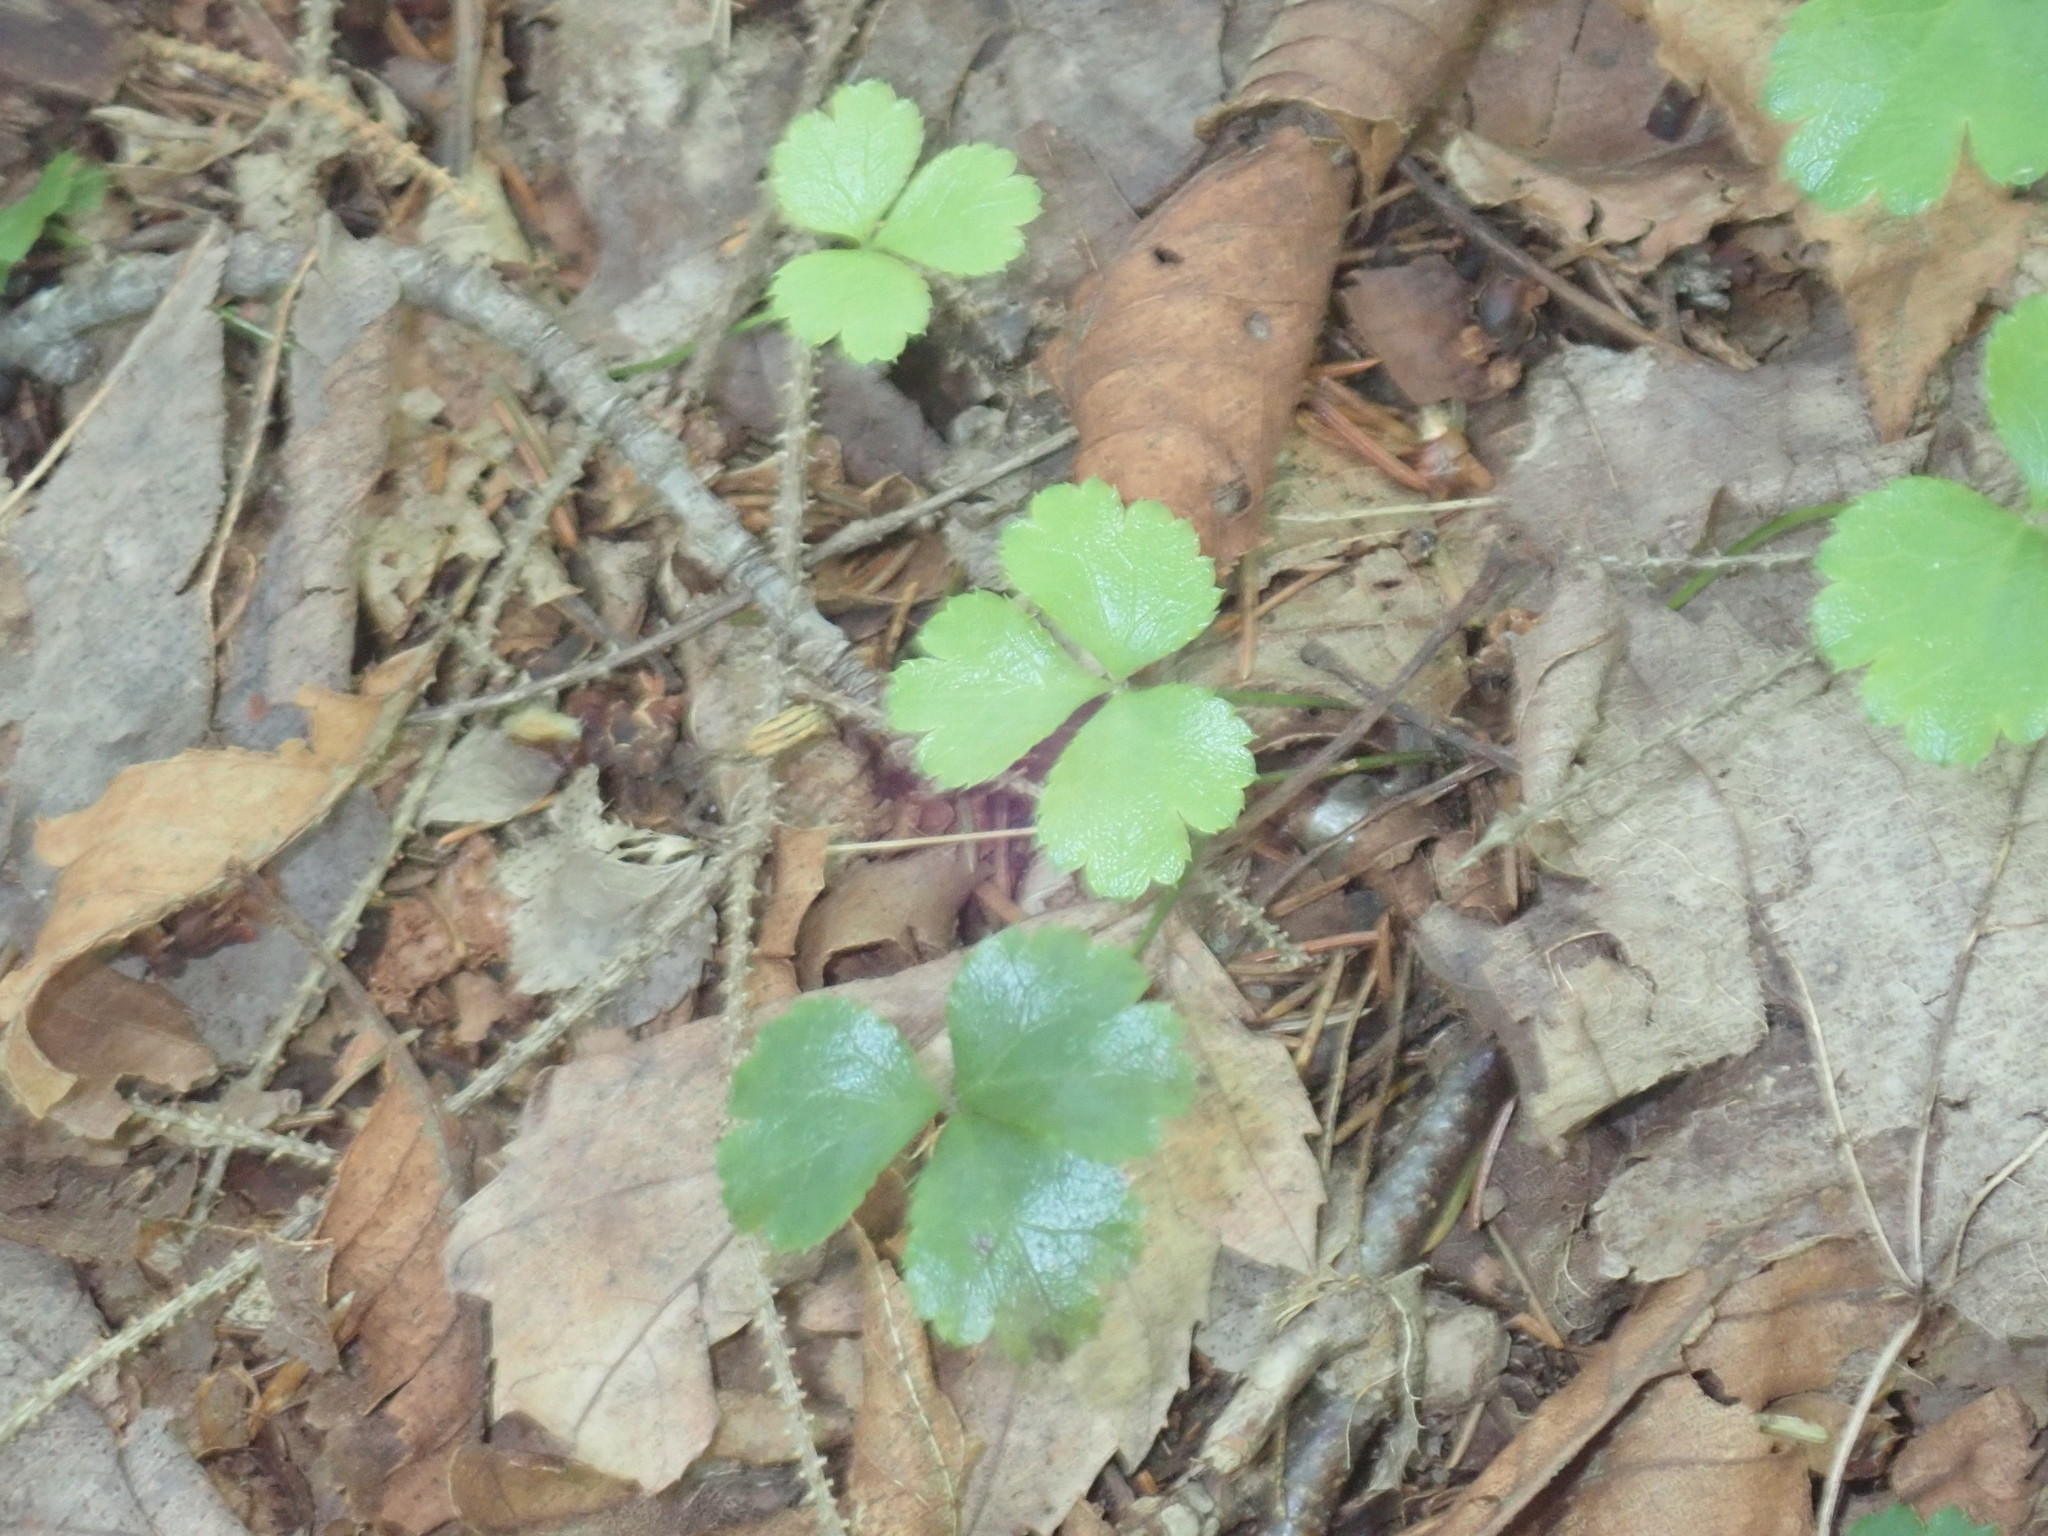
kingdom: Plantae
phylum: Tracheophyta
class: Magnoliopsida
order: Ranunculales
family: Ranunculaceae
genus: Coptis
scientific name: Coptis trifolia
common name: Canker-root
